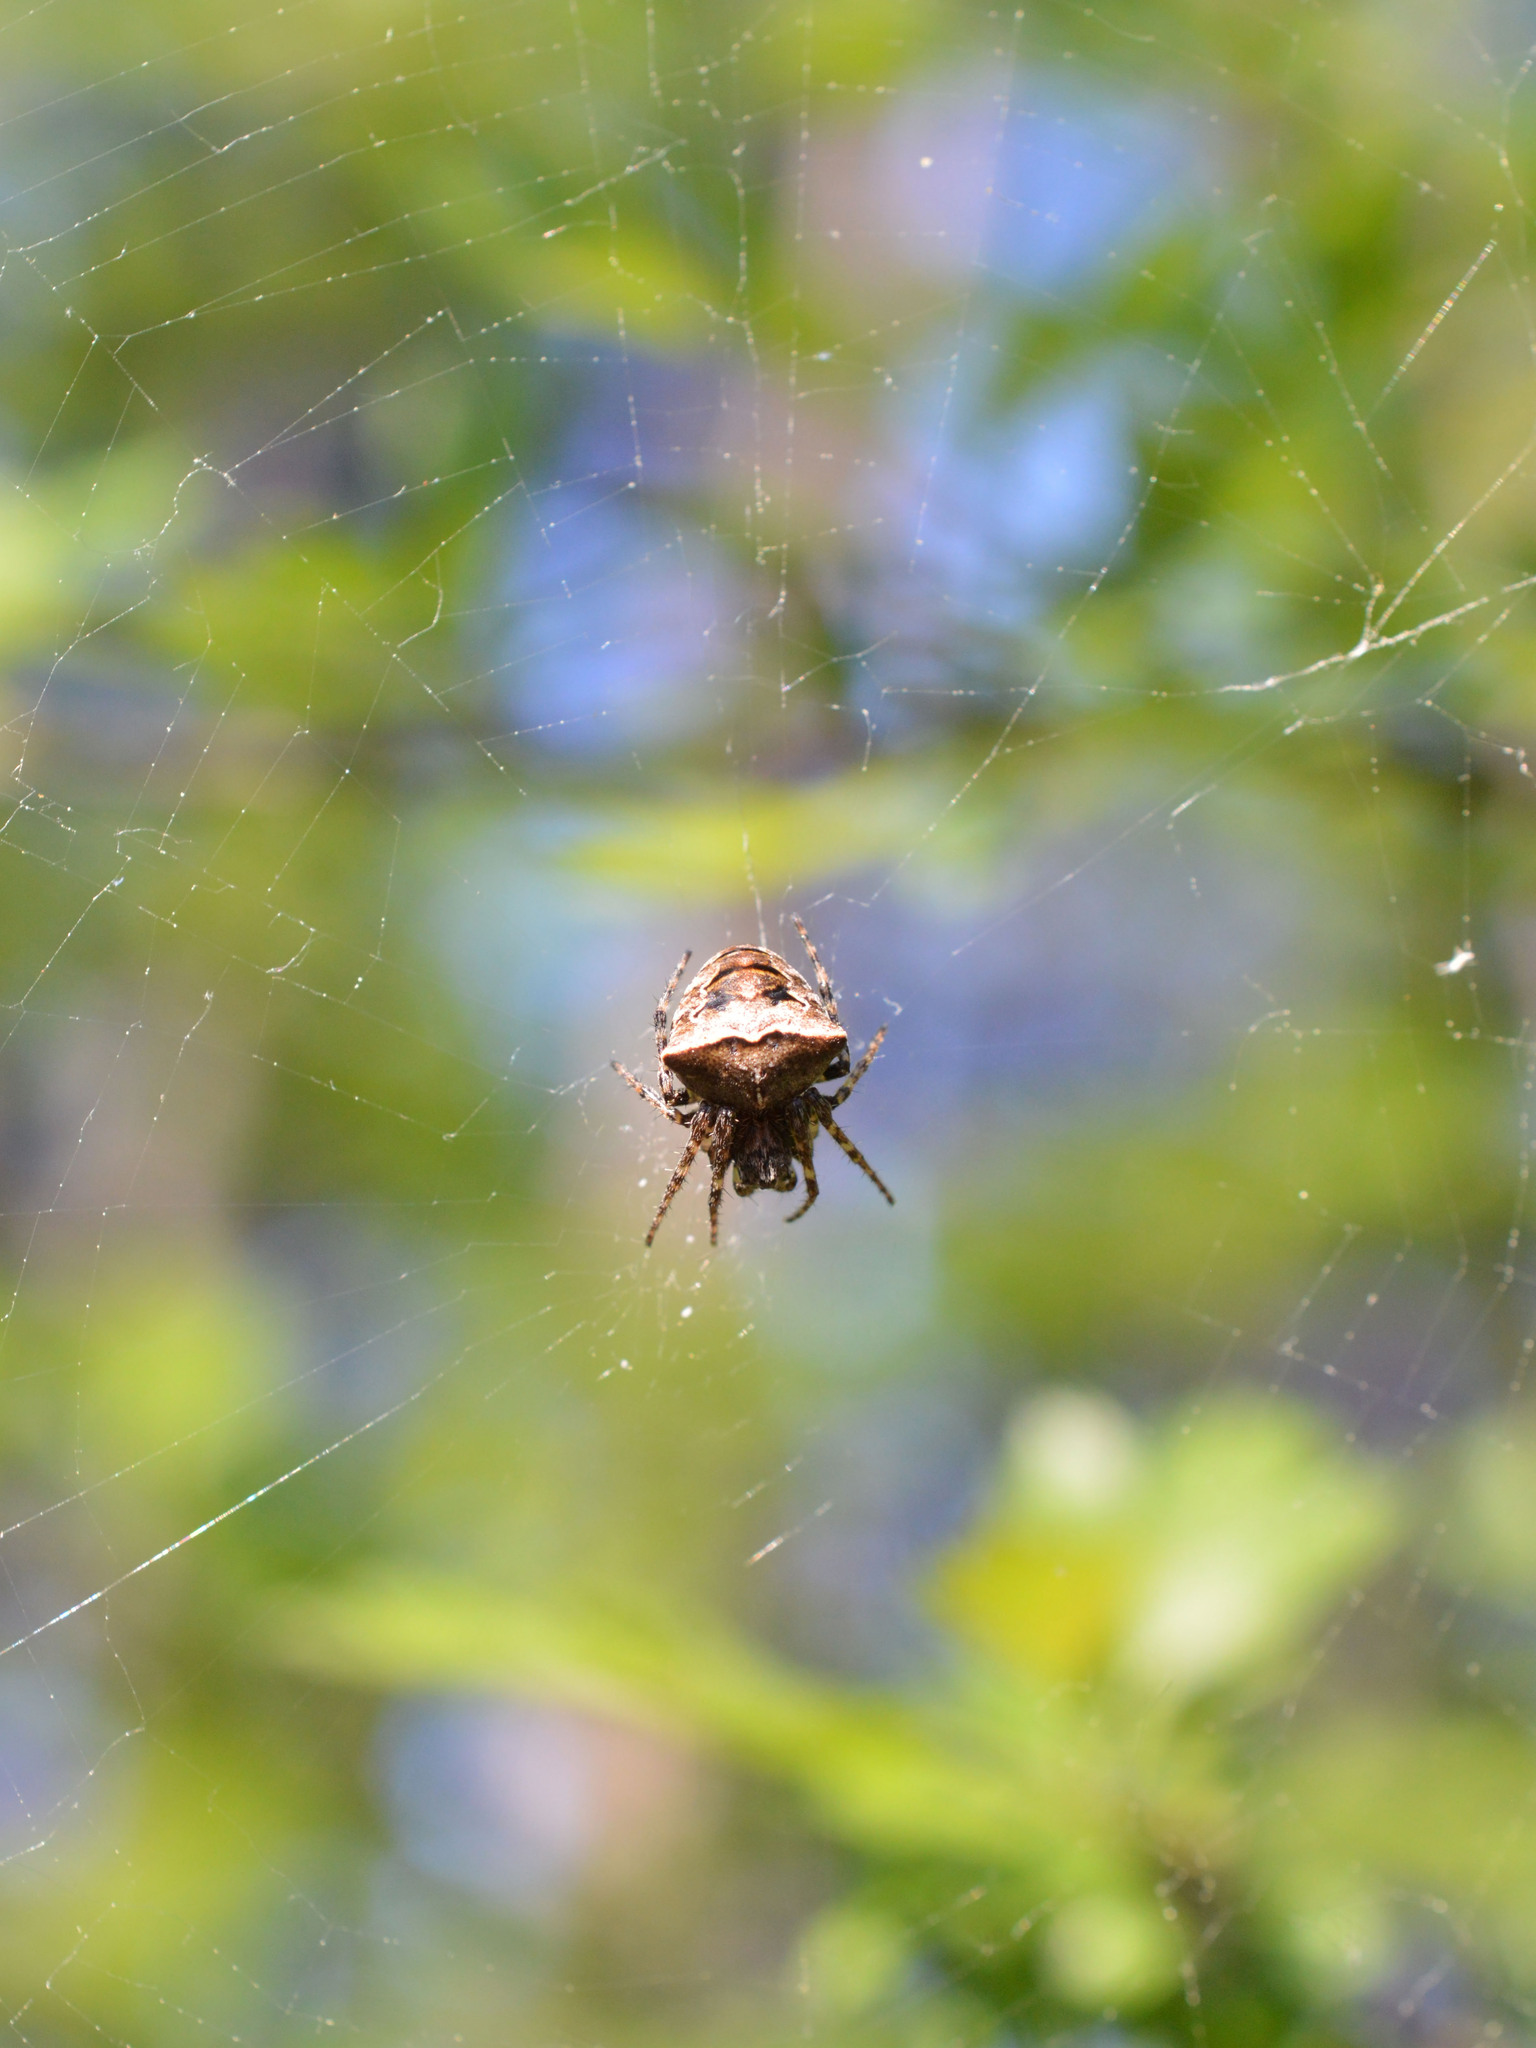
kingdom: Animalia
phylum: Arthropoda
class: Arachnida
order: Araneae
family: Araneidae
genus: Gibbaranea
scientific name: Gibbaranea bituberculata
